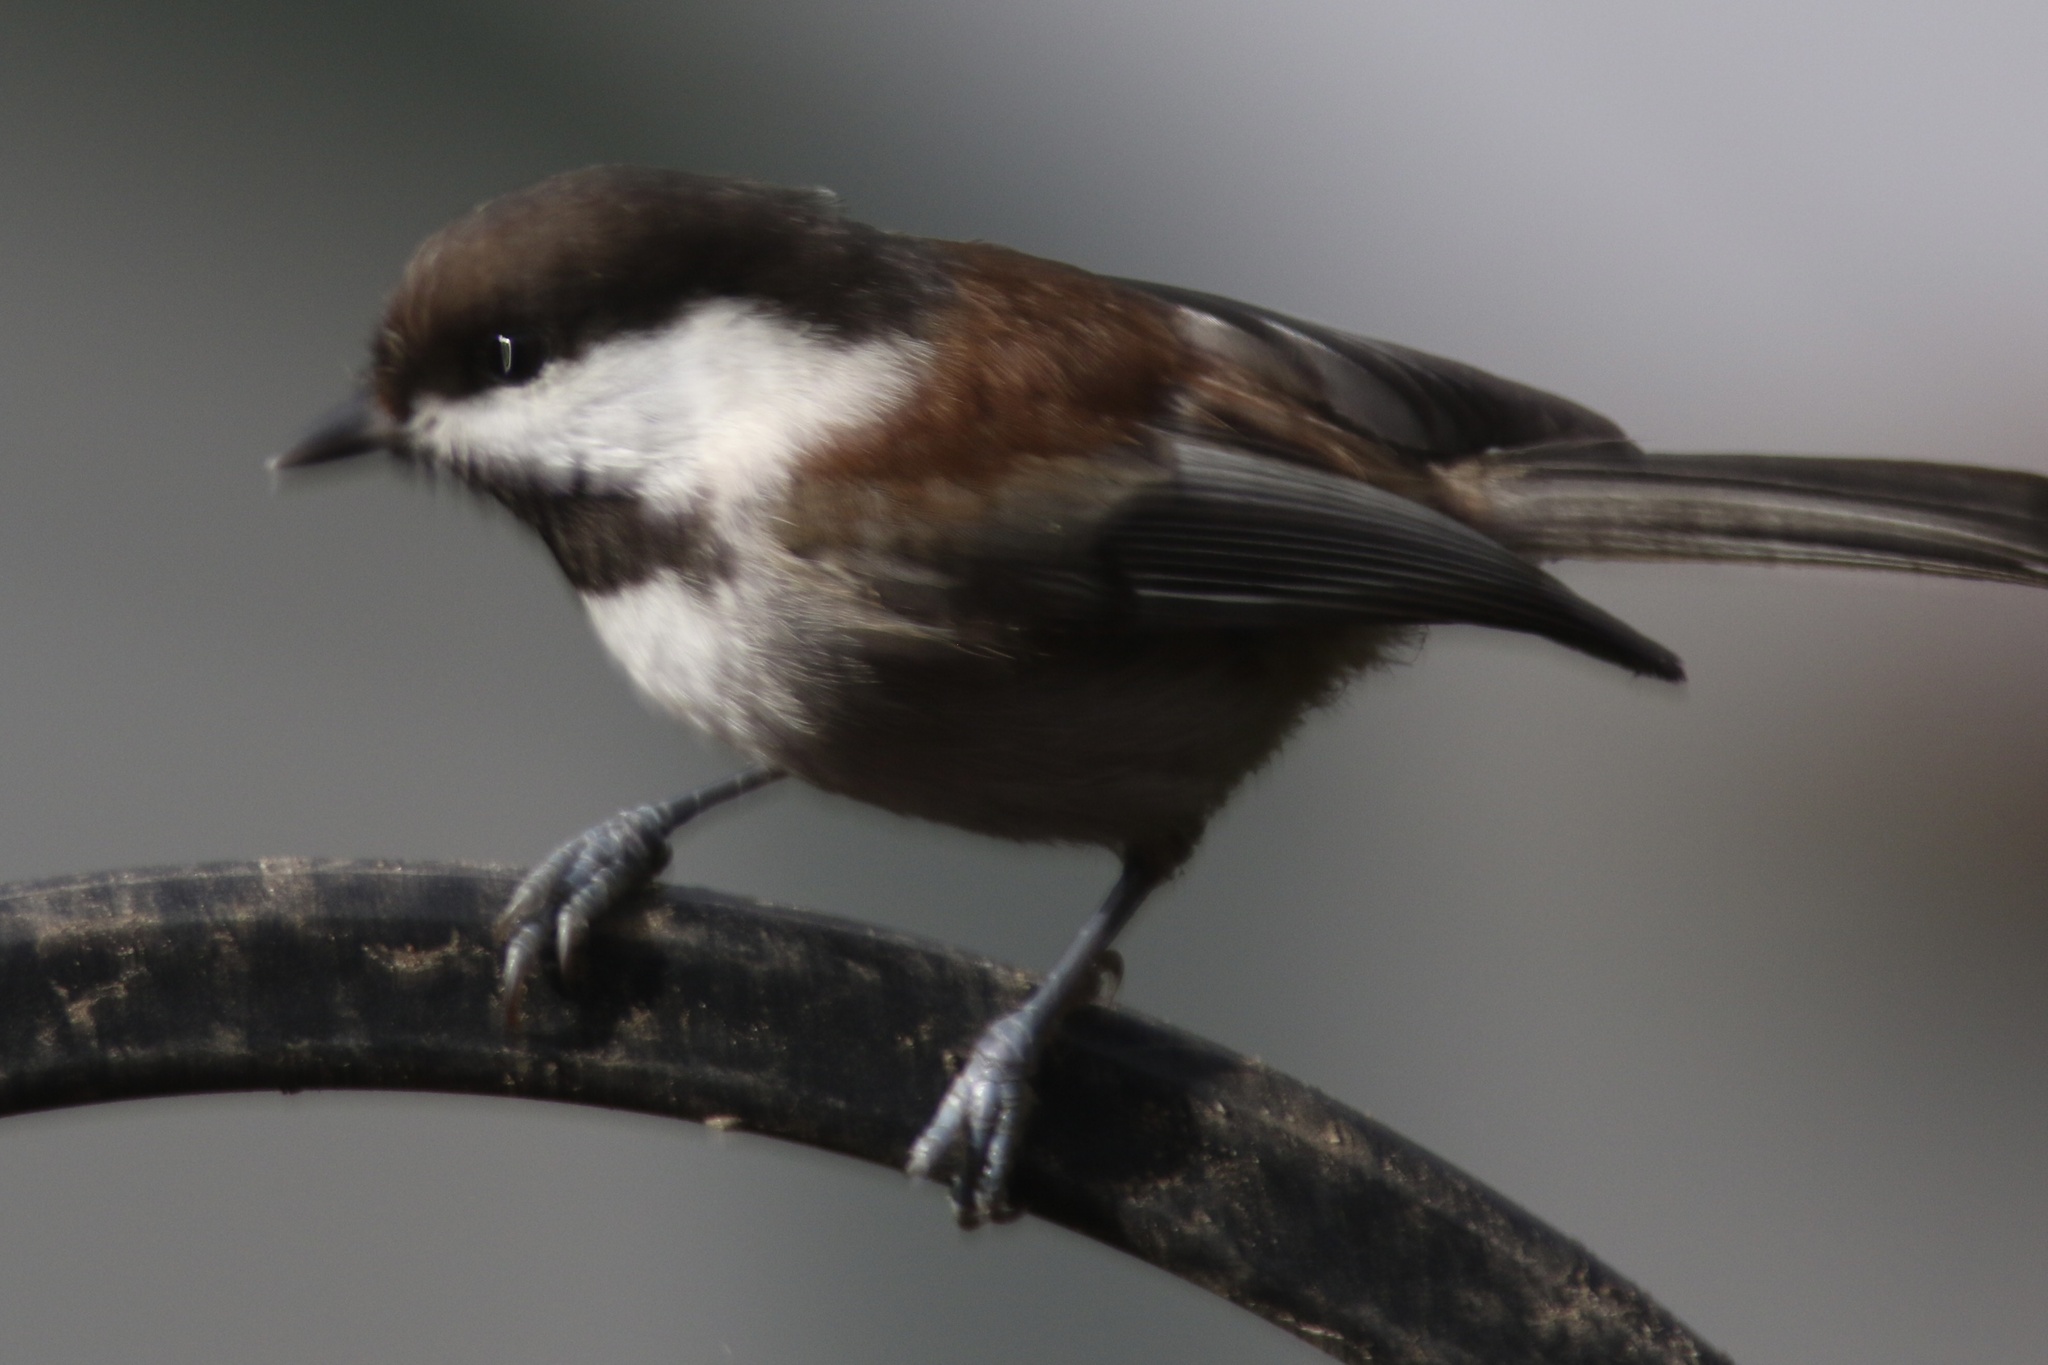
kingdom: Animalia
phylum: Chordata
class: Aves
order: Passeriformes
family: Paridae
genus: Poecile
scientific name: Poecile rufescens
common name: Chestnut-backed chickadee
